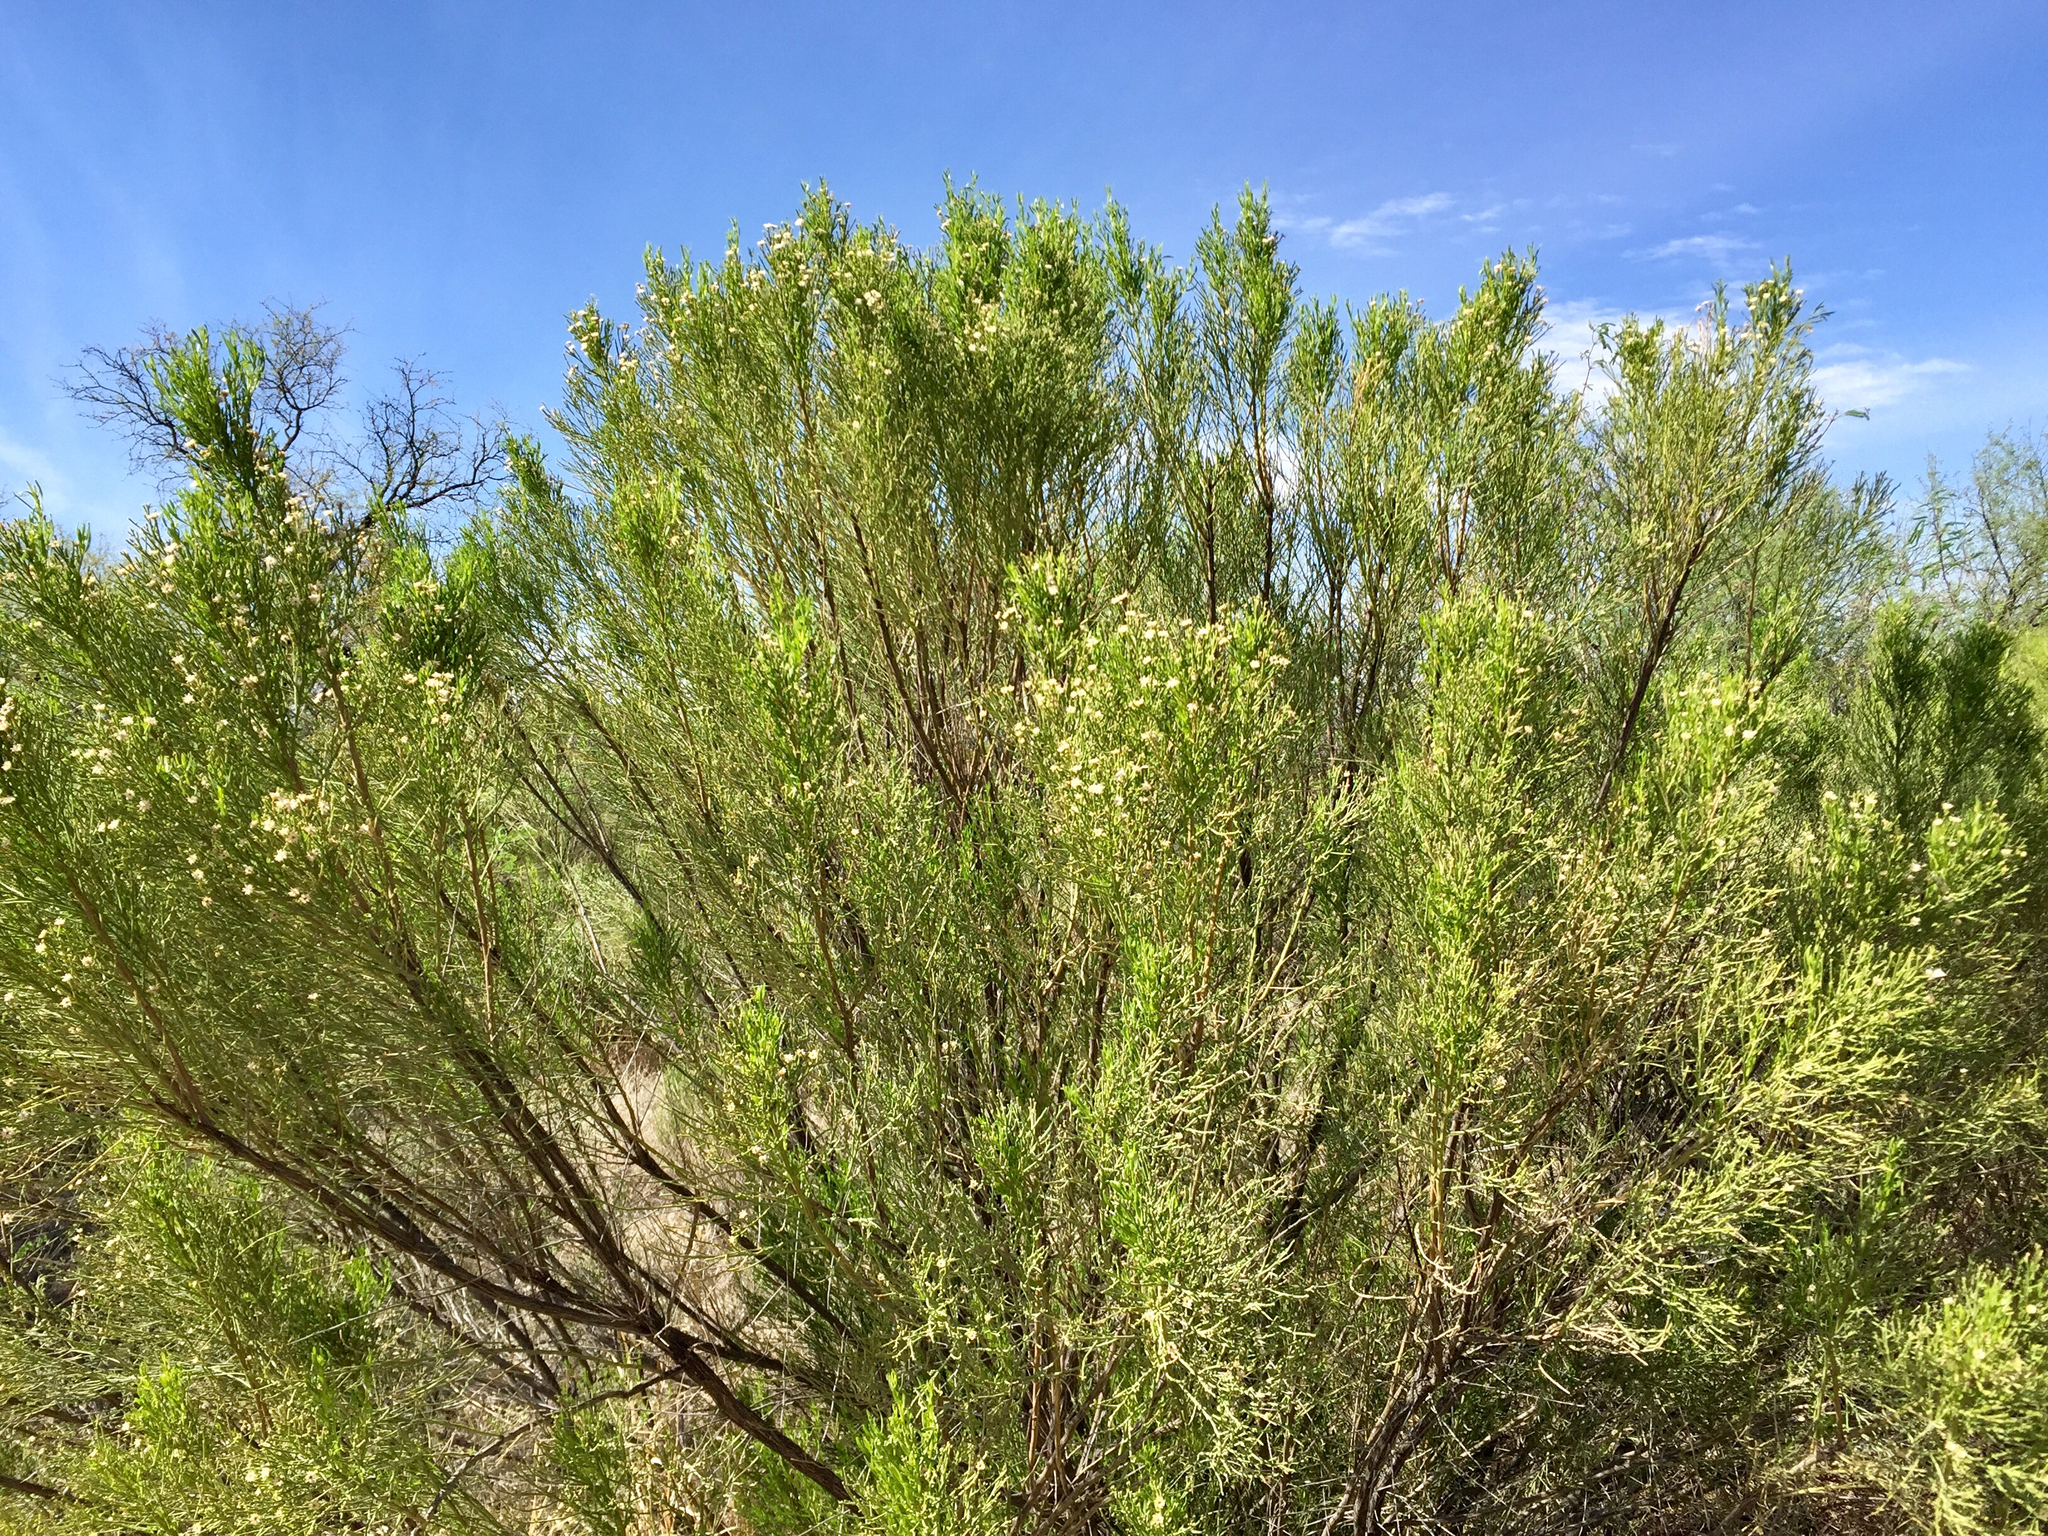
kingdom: Plantae
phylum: Tracheophyta
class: Magnoliopsida
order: Asterales
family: Asteraceae
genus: Baccharis
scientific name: Baccharis sarothroides
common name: Desert-broom
